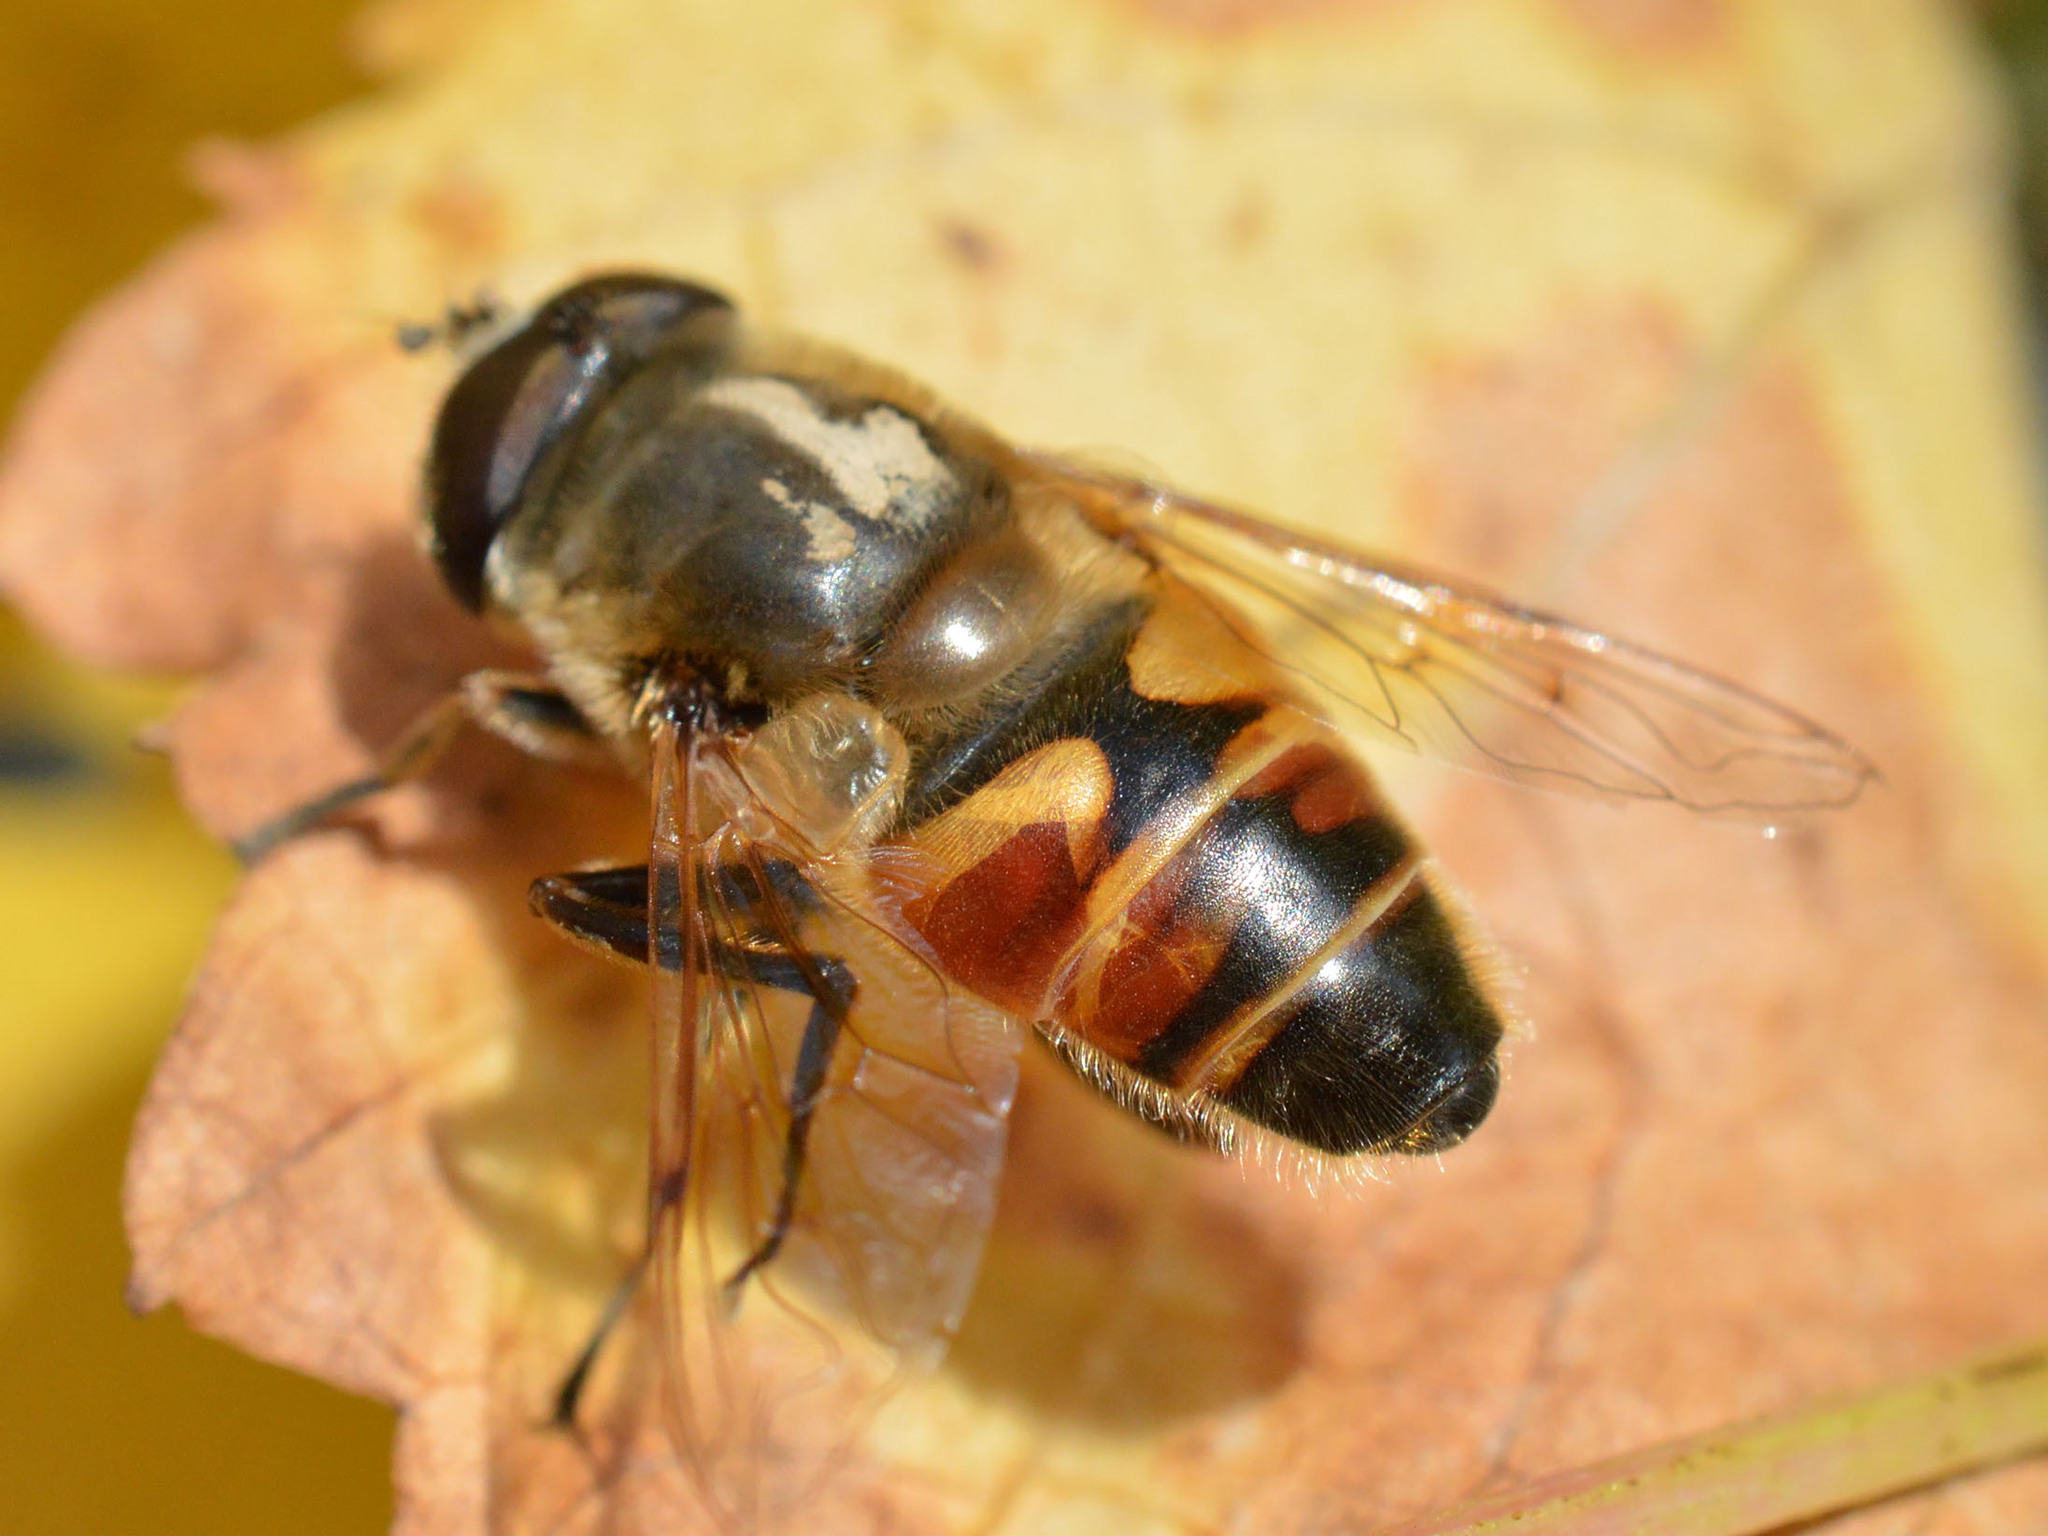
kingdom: Animalia
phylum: Arthropoda
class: Insecta
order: Diptera
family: Syrphidae
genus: Eristalis
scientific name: Eristalis tenax
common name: Drone fly
